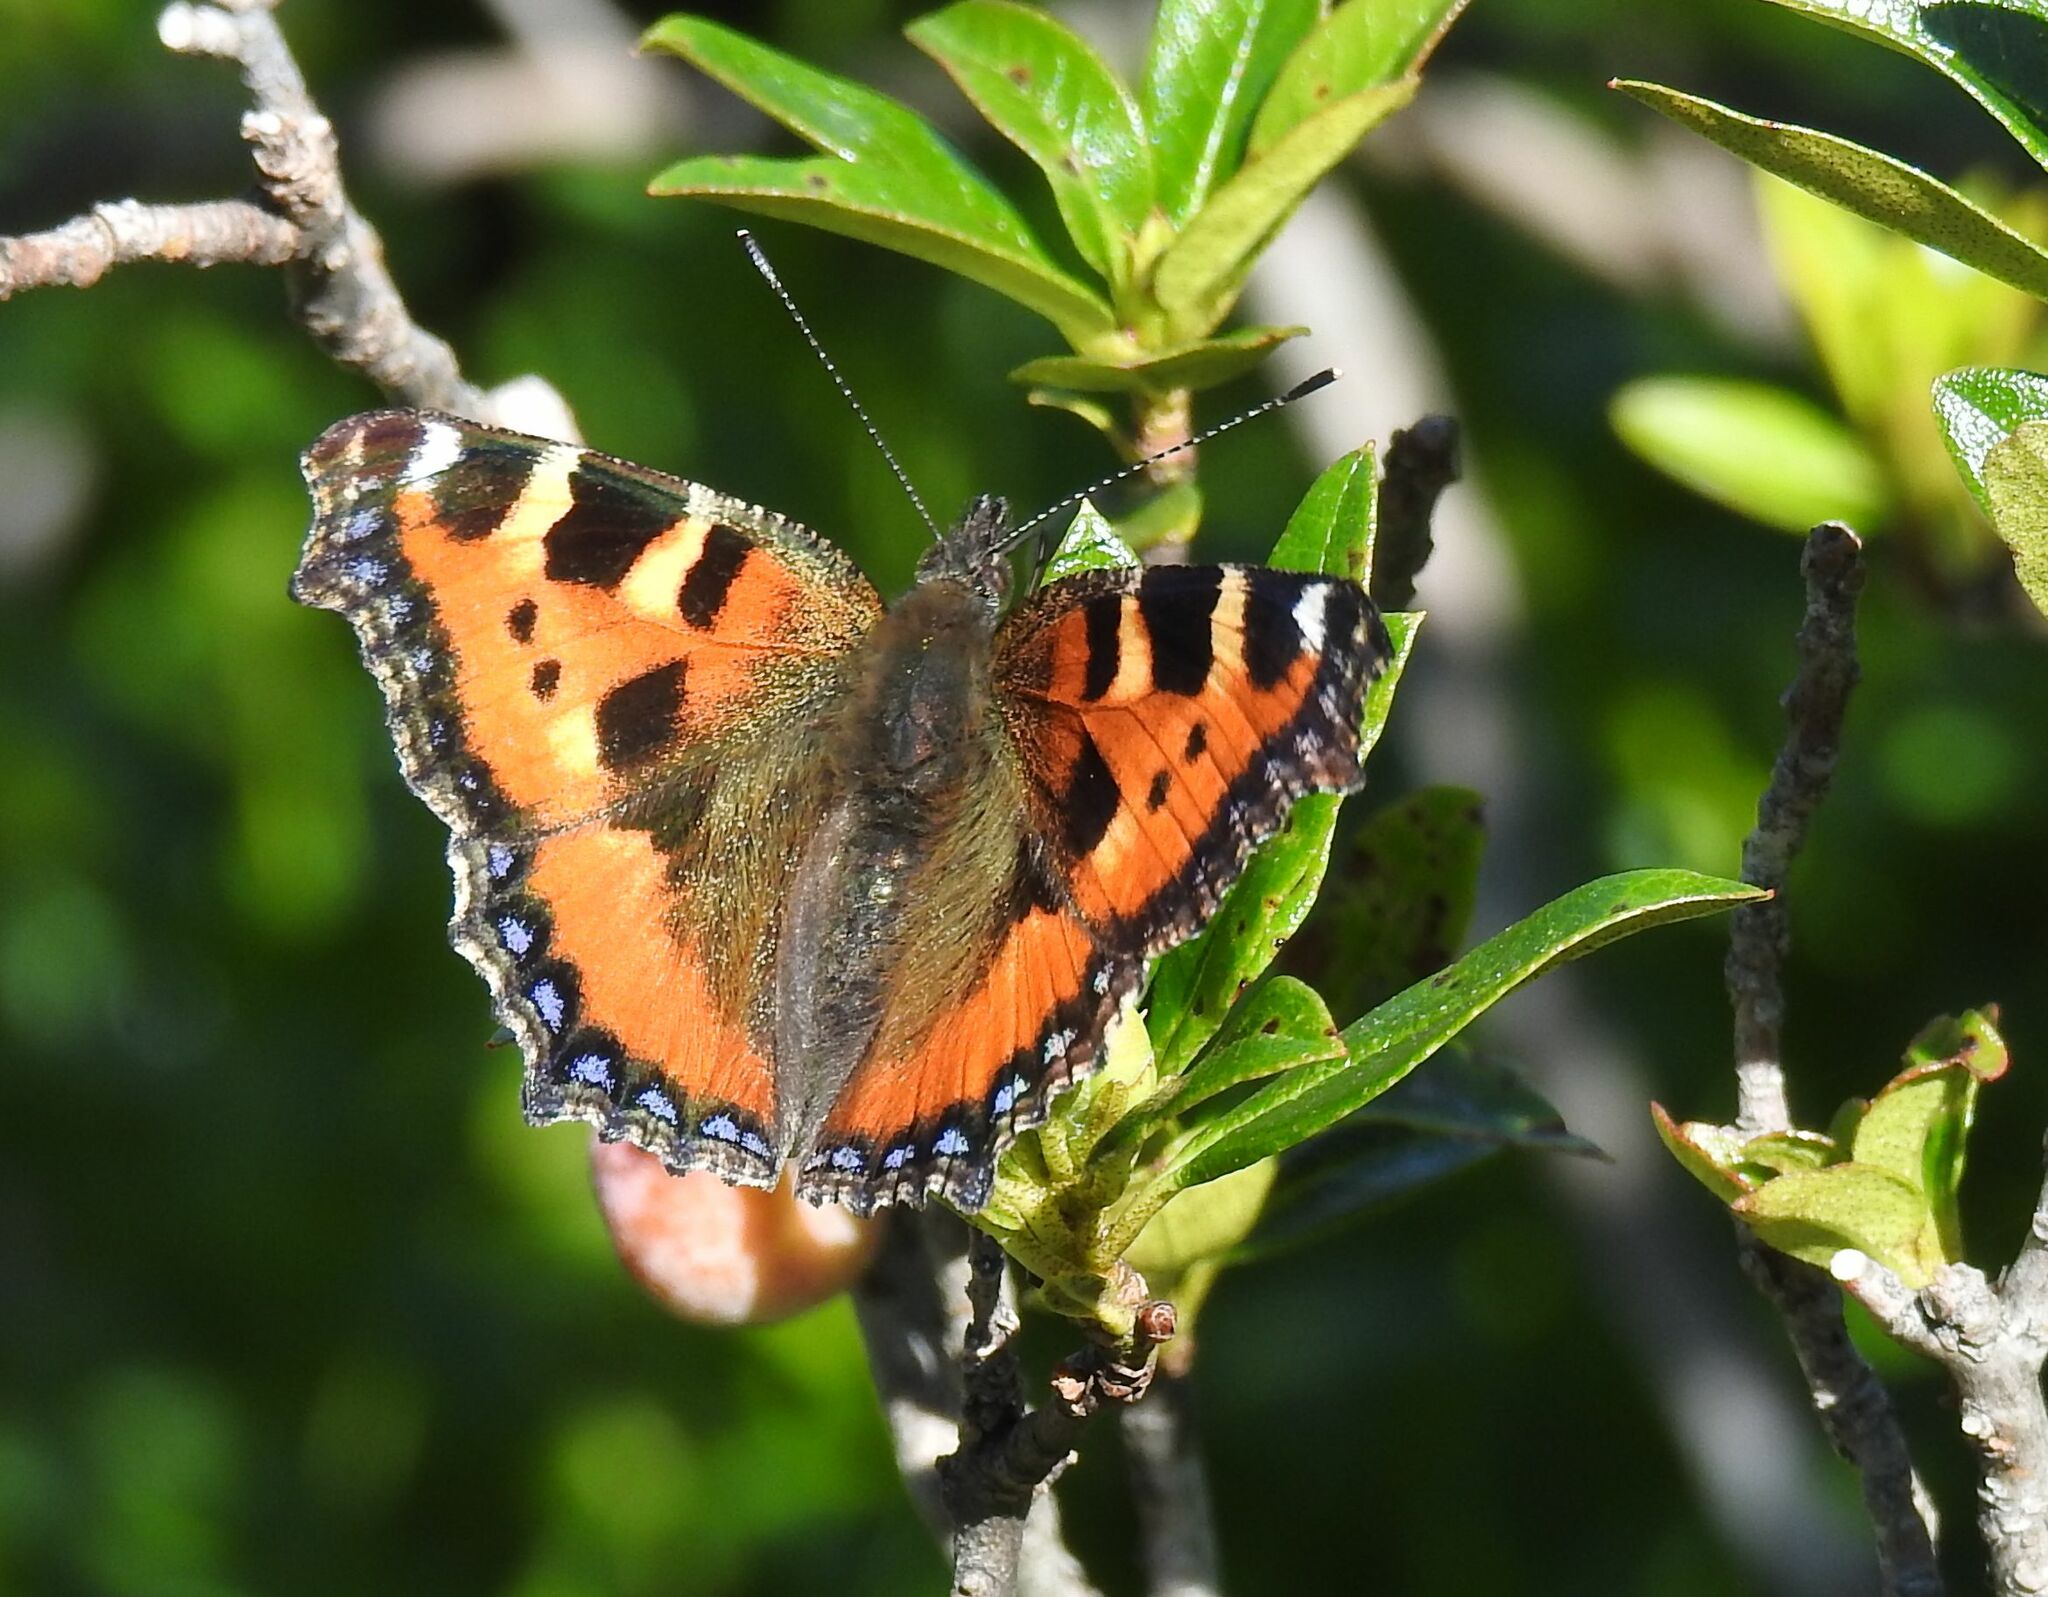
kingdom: Animalia
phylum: Arthropoda
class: Insecta
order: Lepidoptera
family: Nymphalidae
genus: Aglais
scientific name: Aglais urticae
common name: Small tortoiseshell
